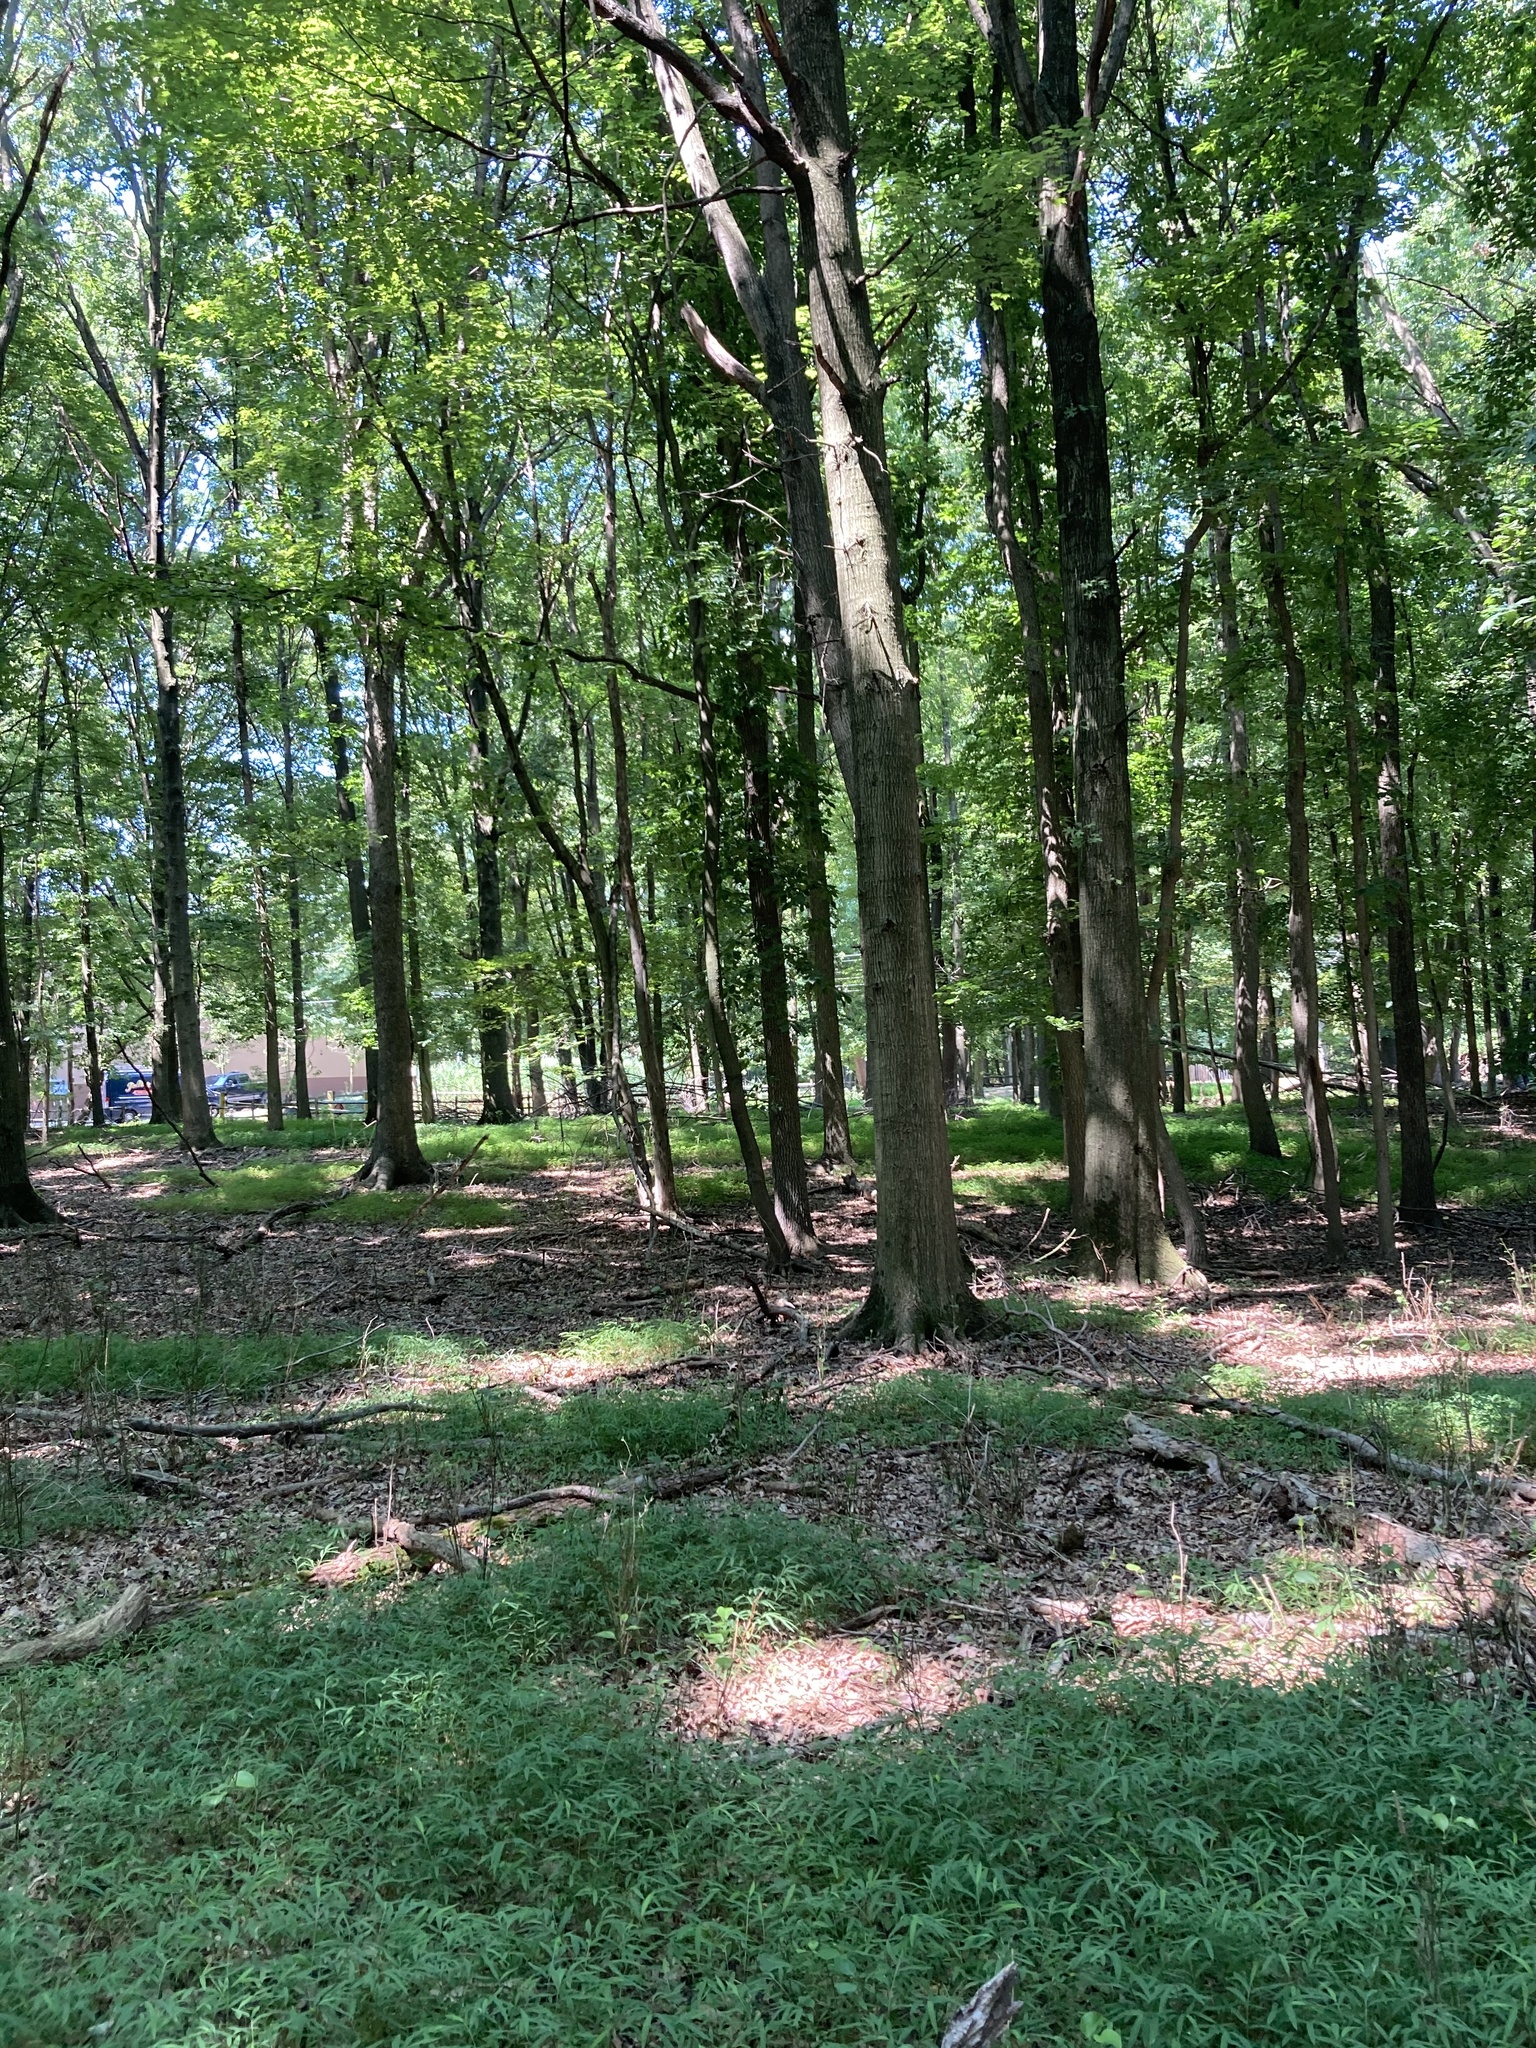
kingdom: Plantae
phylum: Tracheophyta
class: Liliopsida
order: Poales
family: Poaceae
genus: Microstegium
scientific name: Microstegium vimineum
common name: Japanese stiltgrass
